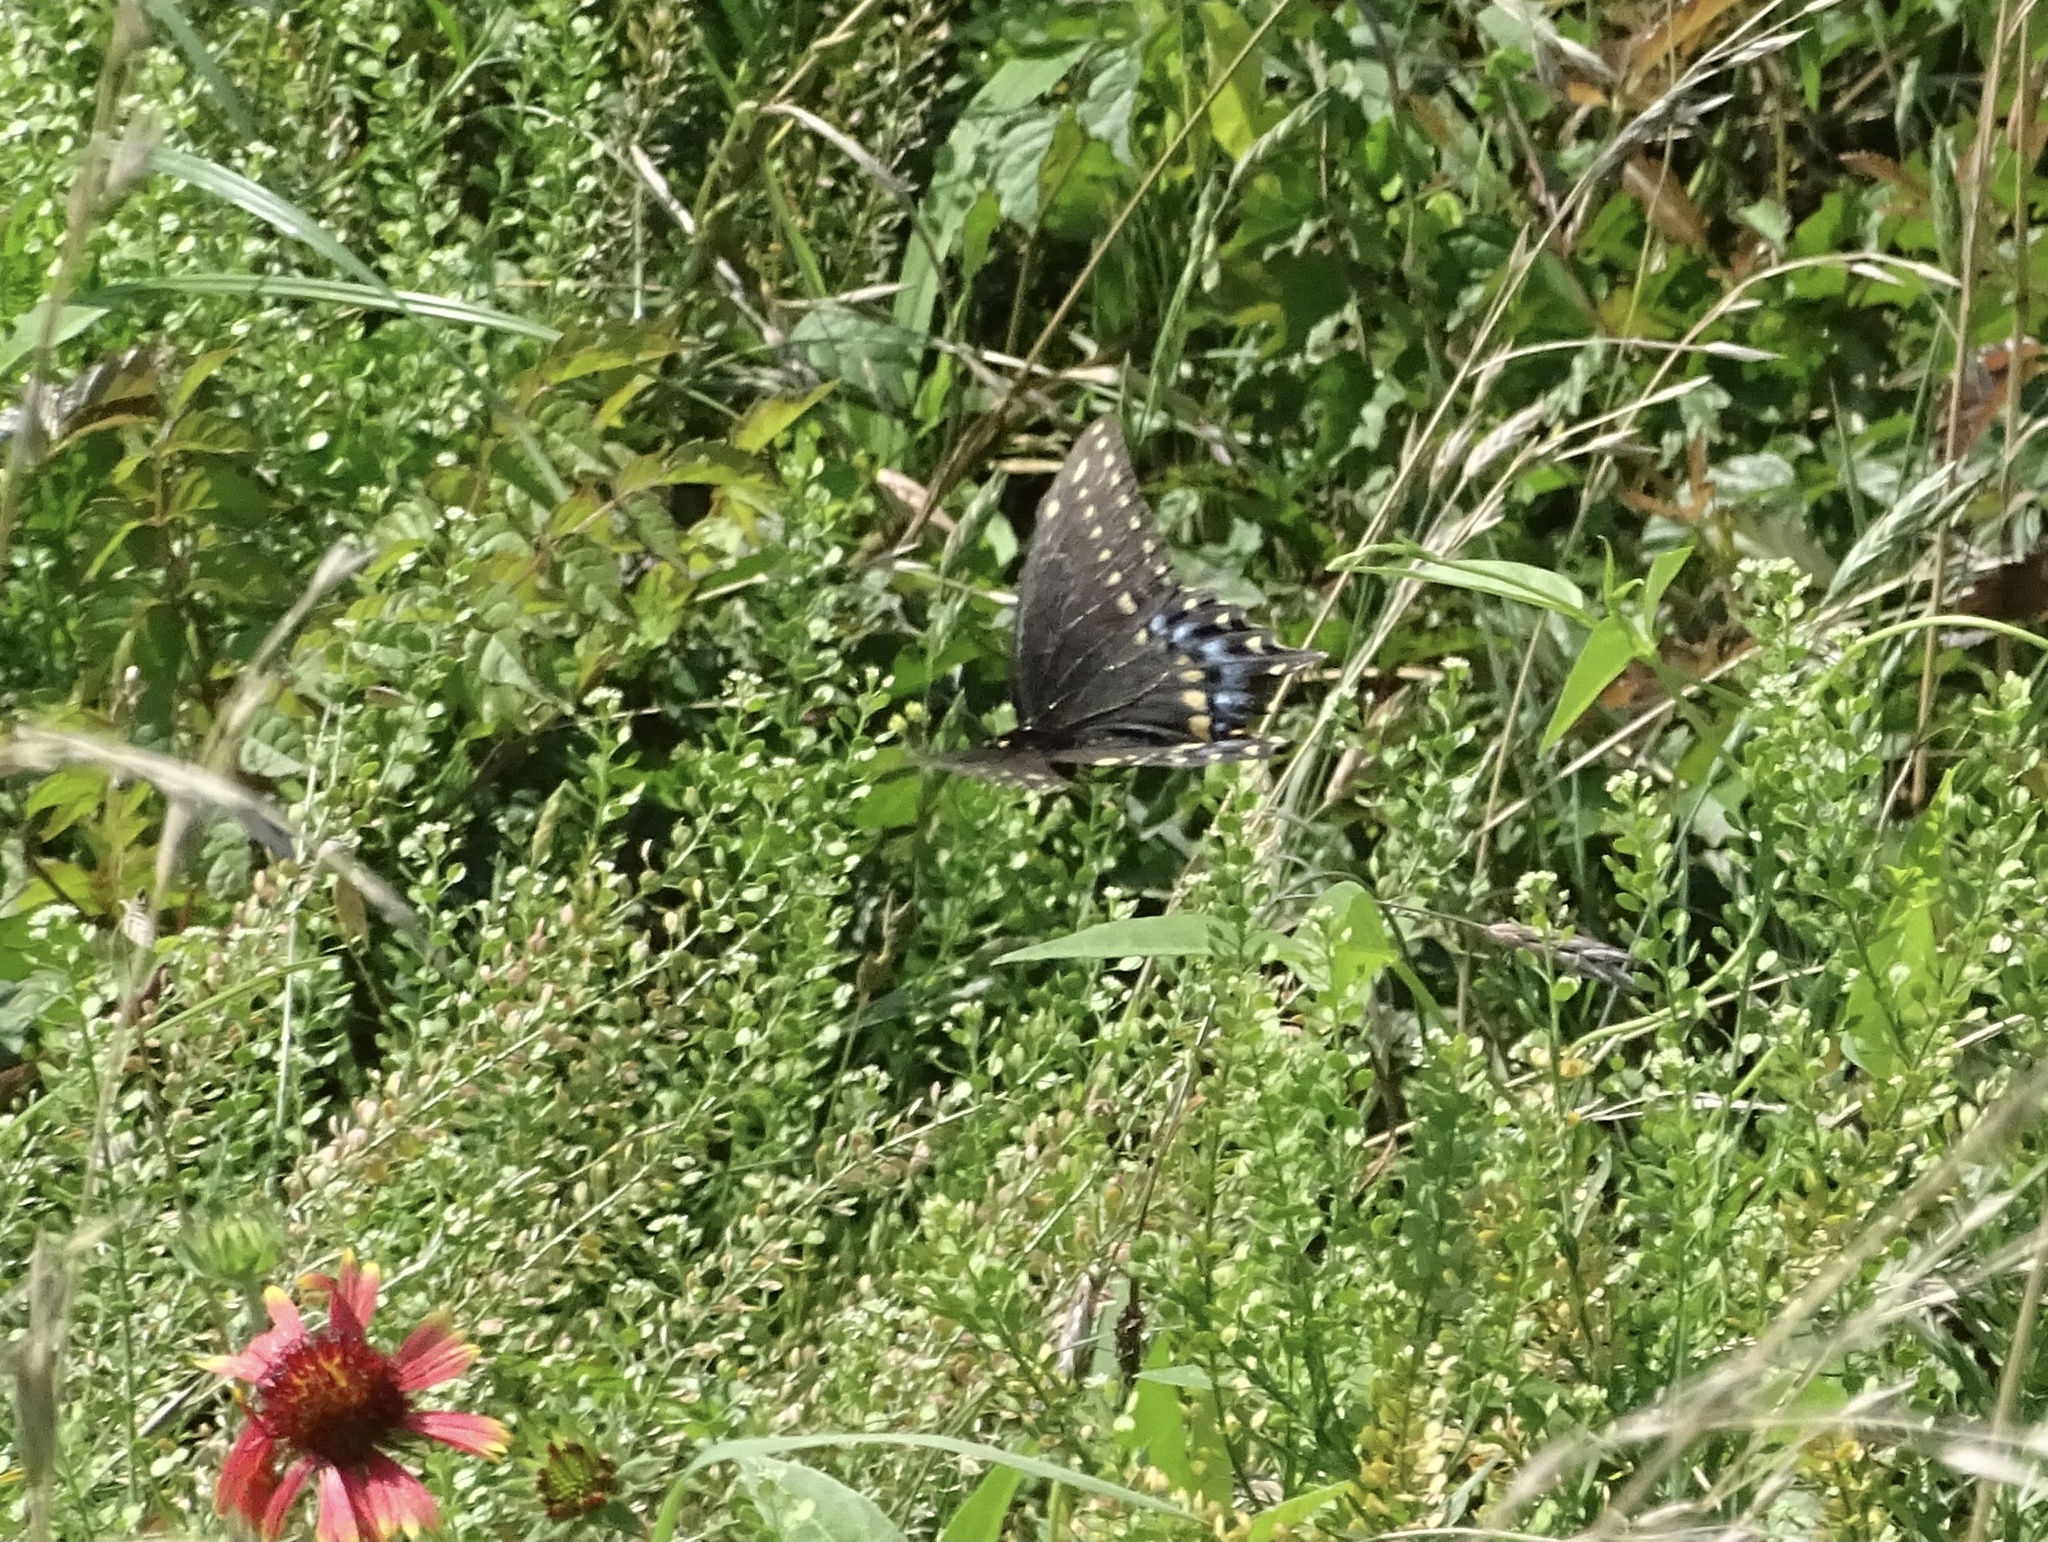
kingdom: Animalia
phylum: Arthropoda
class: Insecta
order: Lepidoptera
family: Papilionidae
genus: Papilio
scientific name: Papilio polyxenes
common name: Black swallowtail
